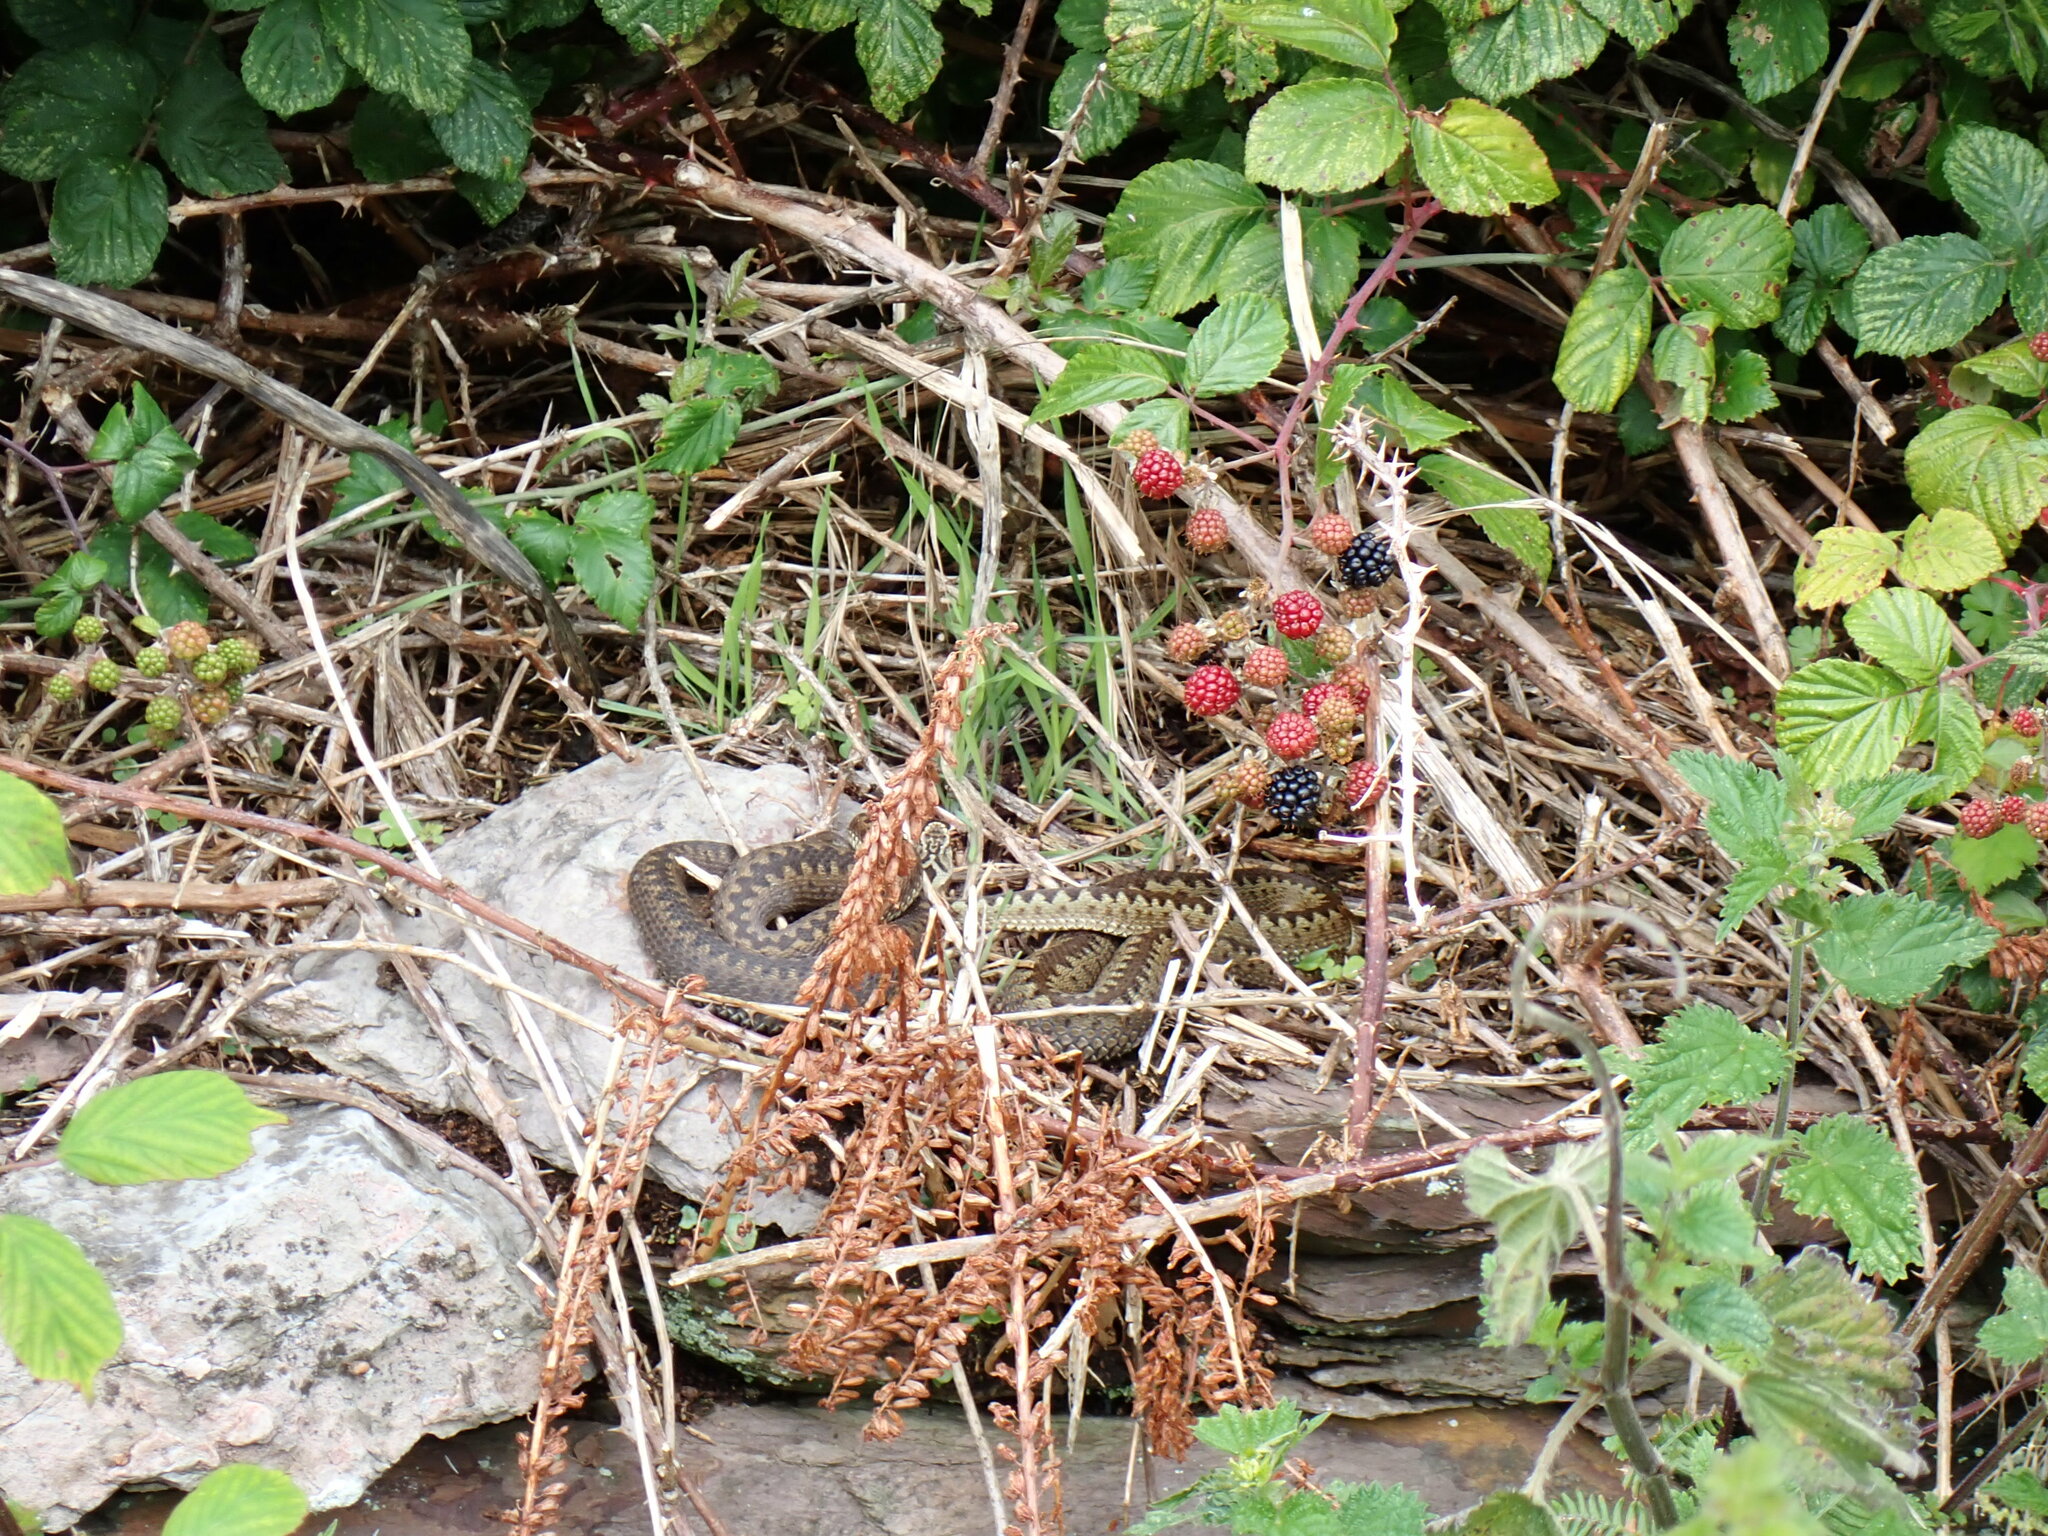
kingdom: Animalia
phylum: Chordata
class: Squamata
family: Viperidae
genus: Vipera
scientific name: Vipera berus
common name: Adder
